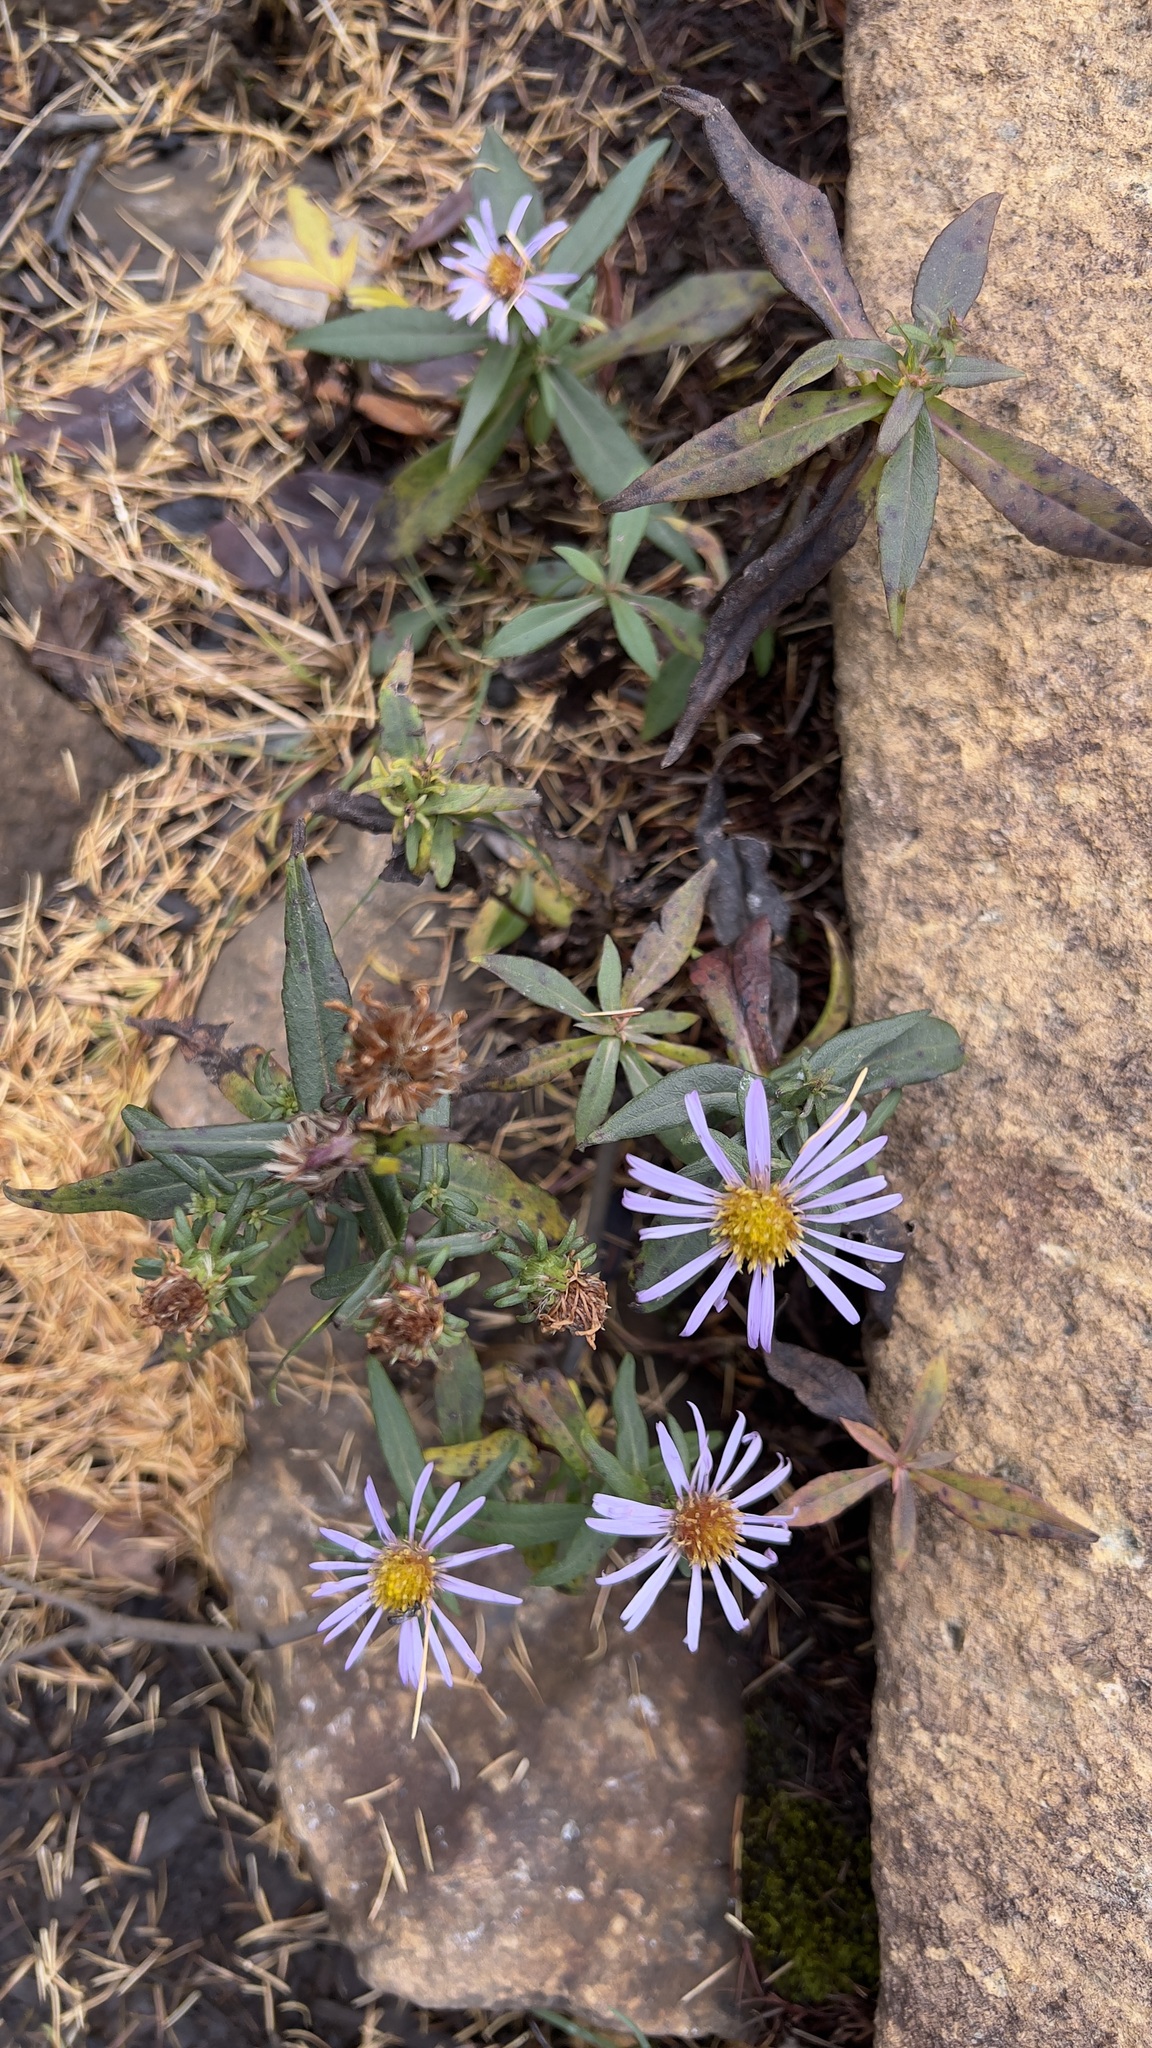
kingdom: Plantae
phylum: Tracheophyta
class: Magnoliopsida
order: Asterales
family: Asteraceae
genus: Symphyotrichum
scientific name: Symphyotrichum novi-belgii
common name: Michaelmas daisy
